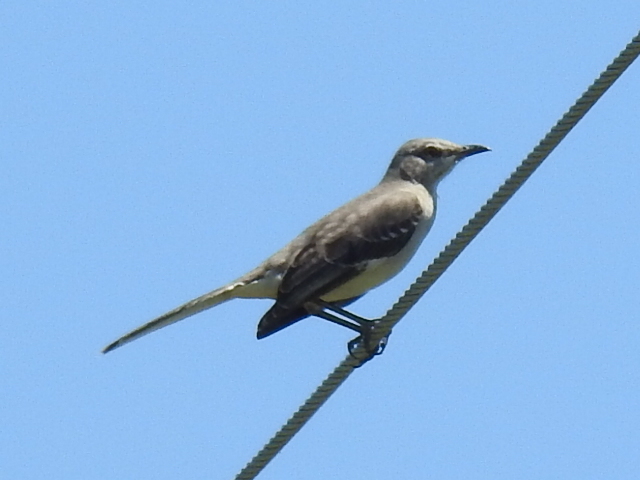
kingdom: Animalia
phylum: Chordata
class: Aves
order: Passeriformes
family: Mimidae
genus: Mimus
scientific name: Mimus polyglottos
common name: Northern mockingbird
